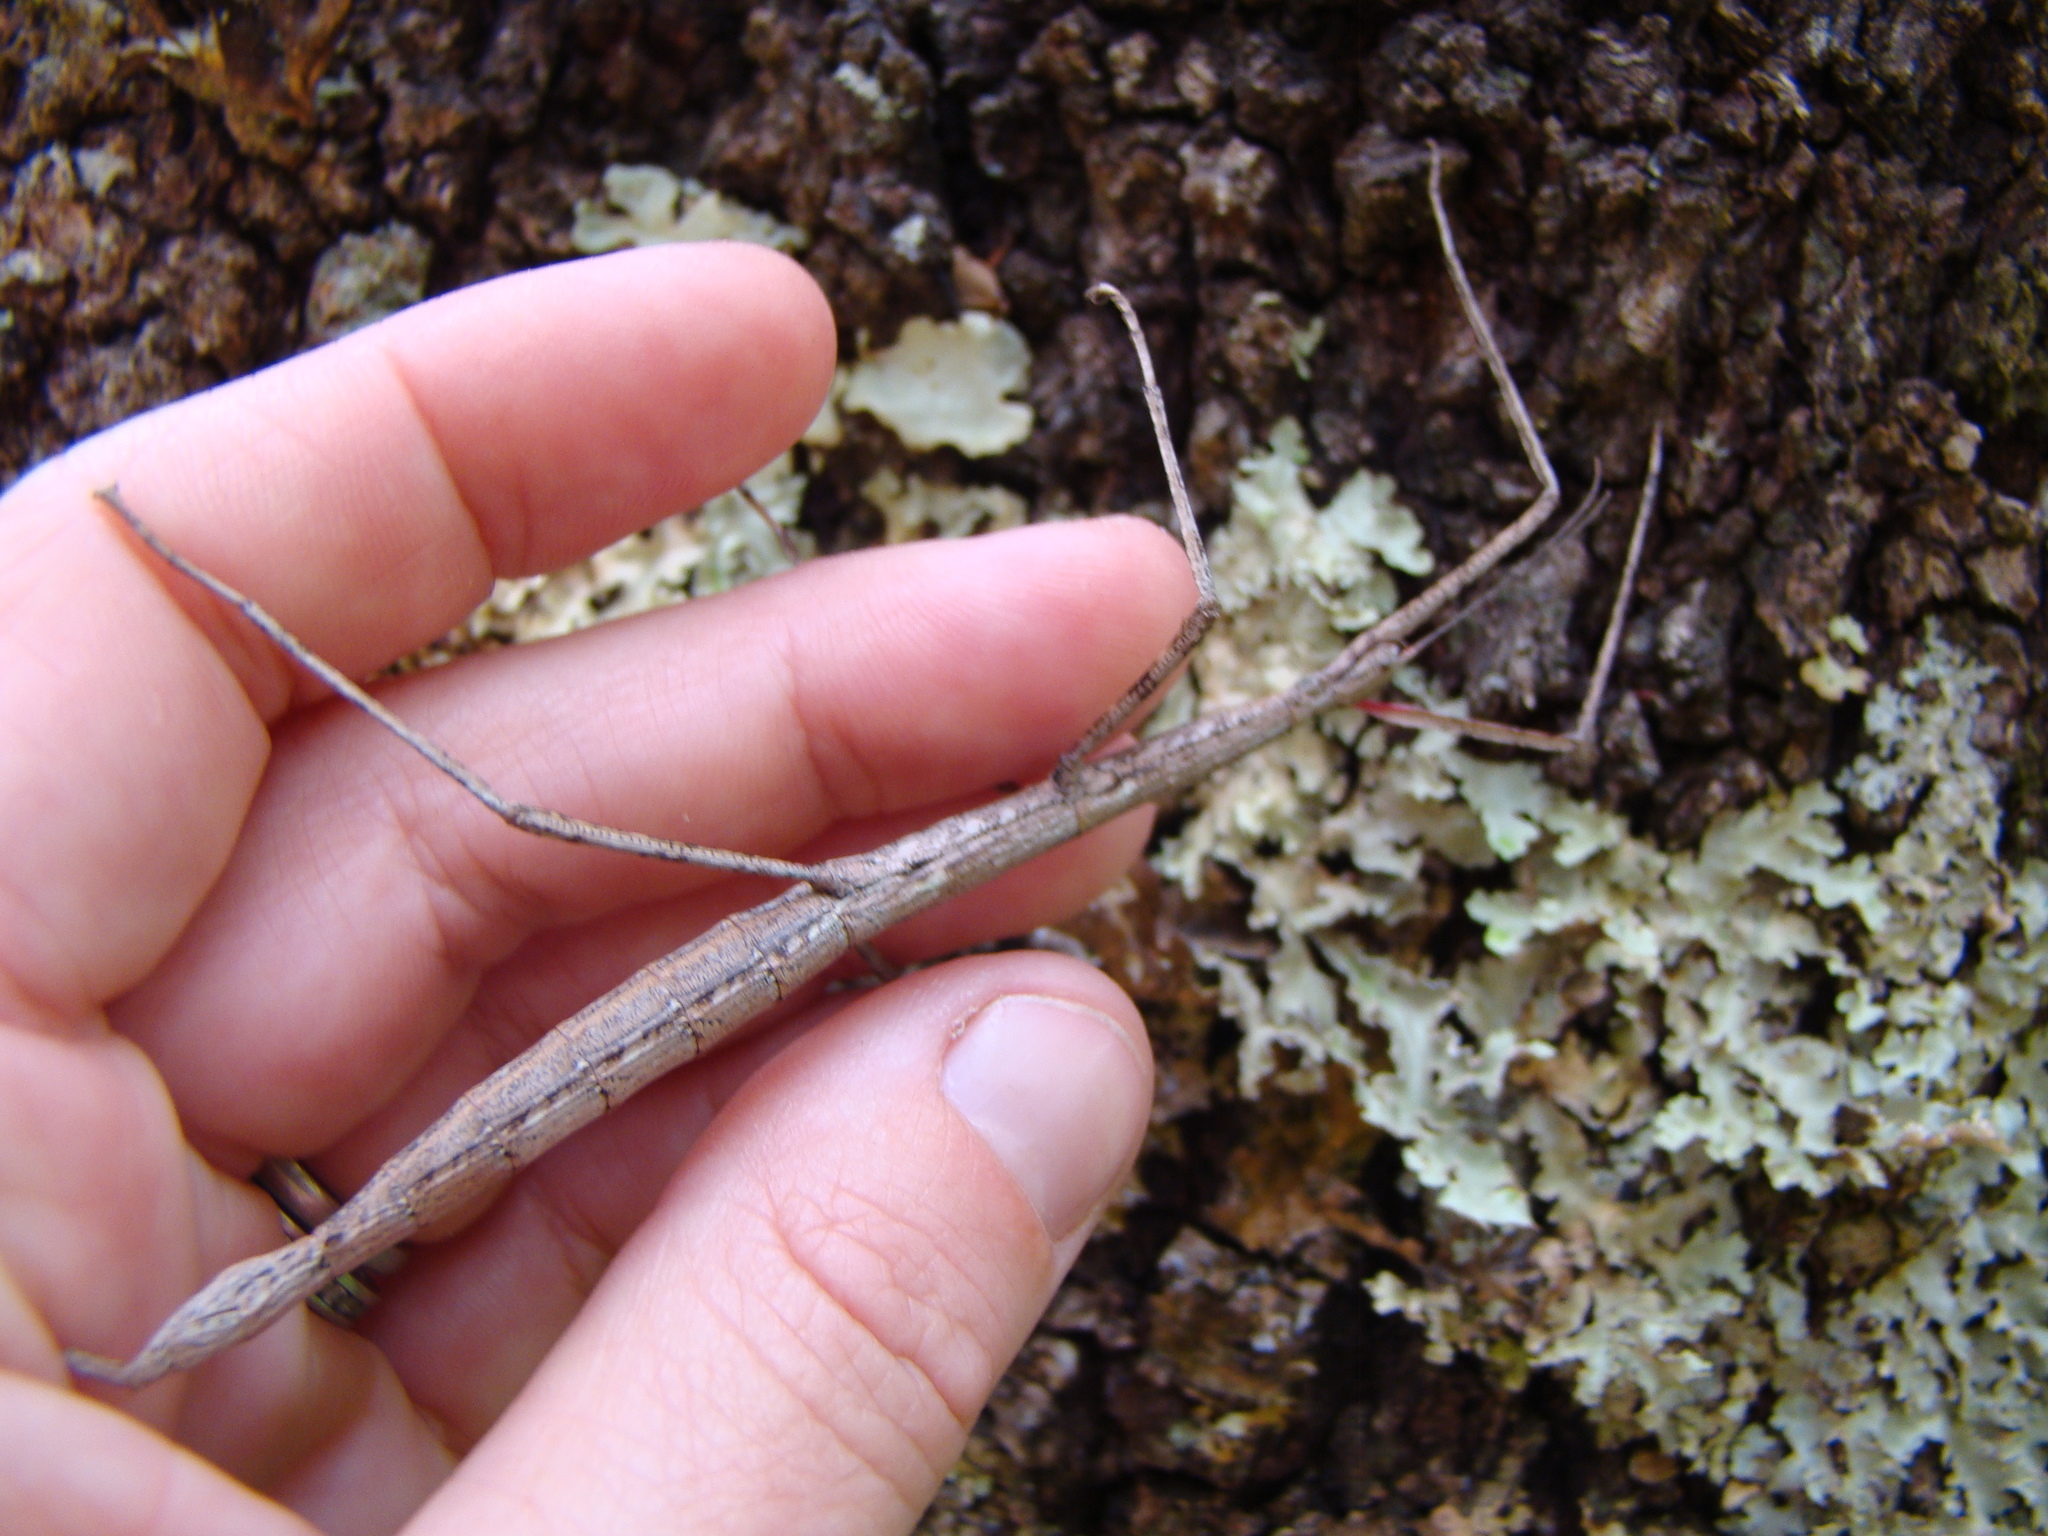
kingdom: Animalia
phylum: Arthropoda
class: Insecta
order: Phasmida
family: Phasmatidae
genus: Clitarchus
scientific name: Clitarchus hookeri
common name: Smooth stick insect
